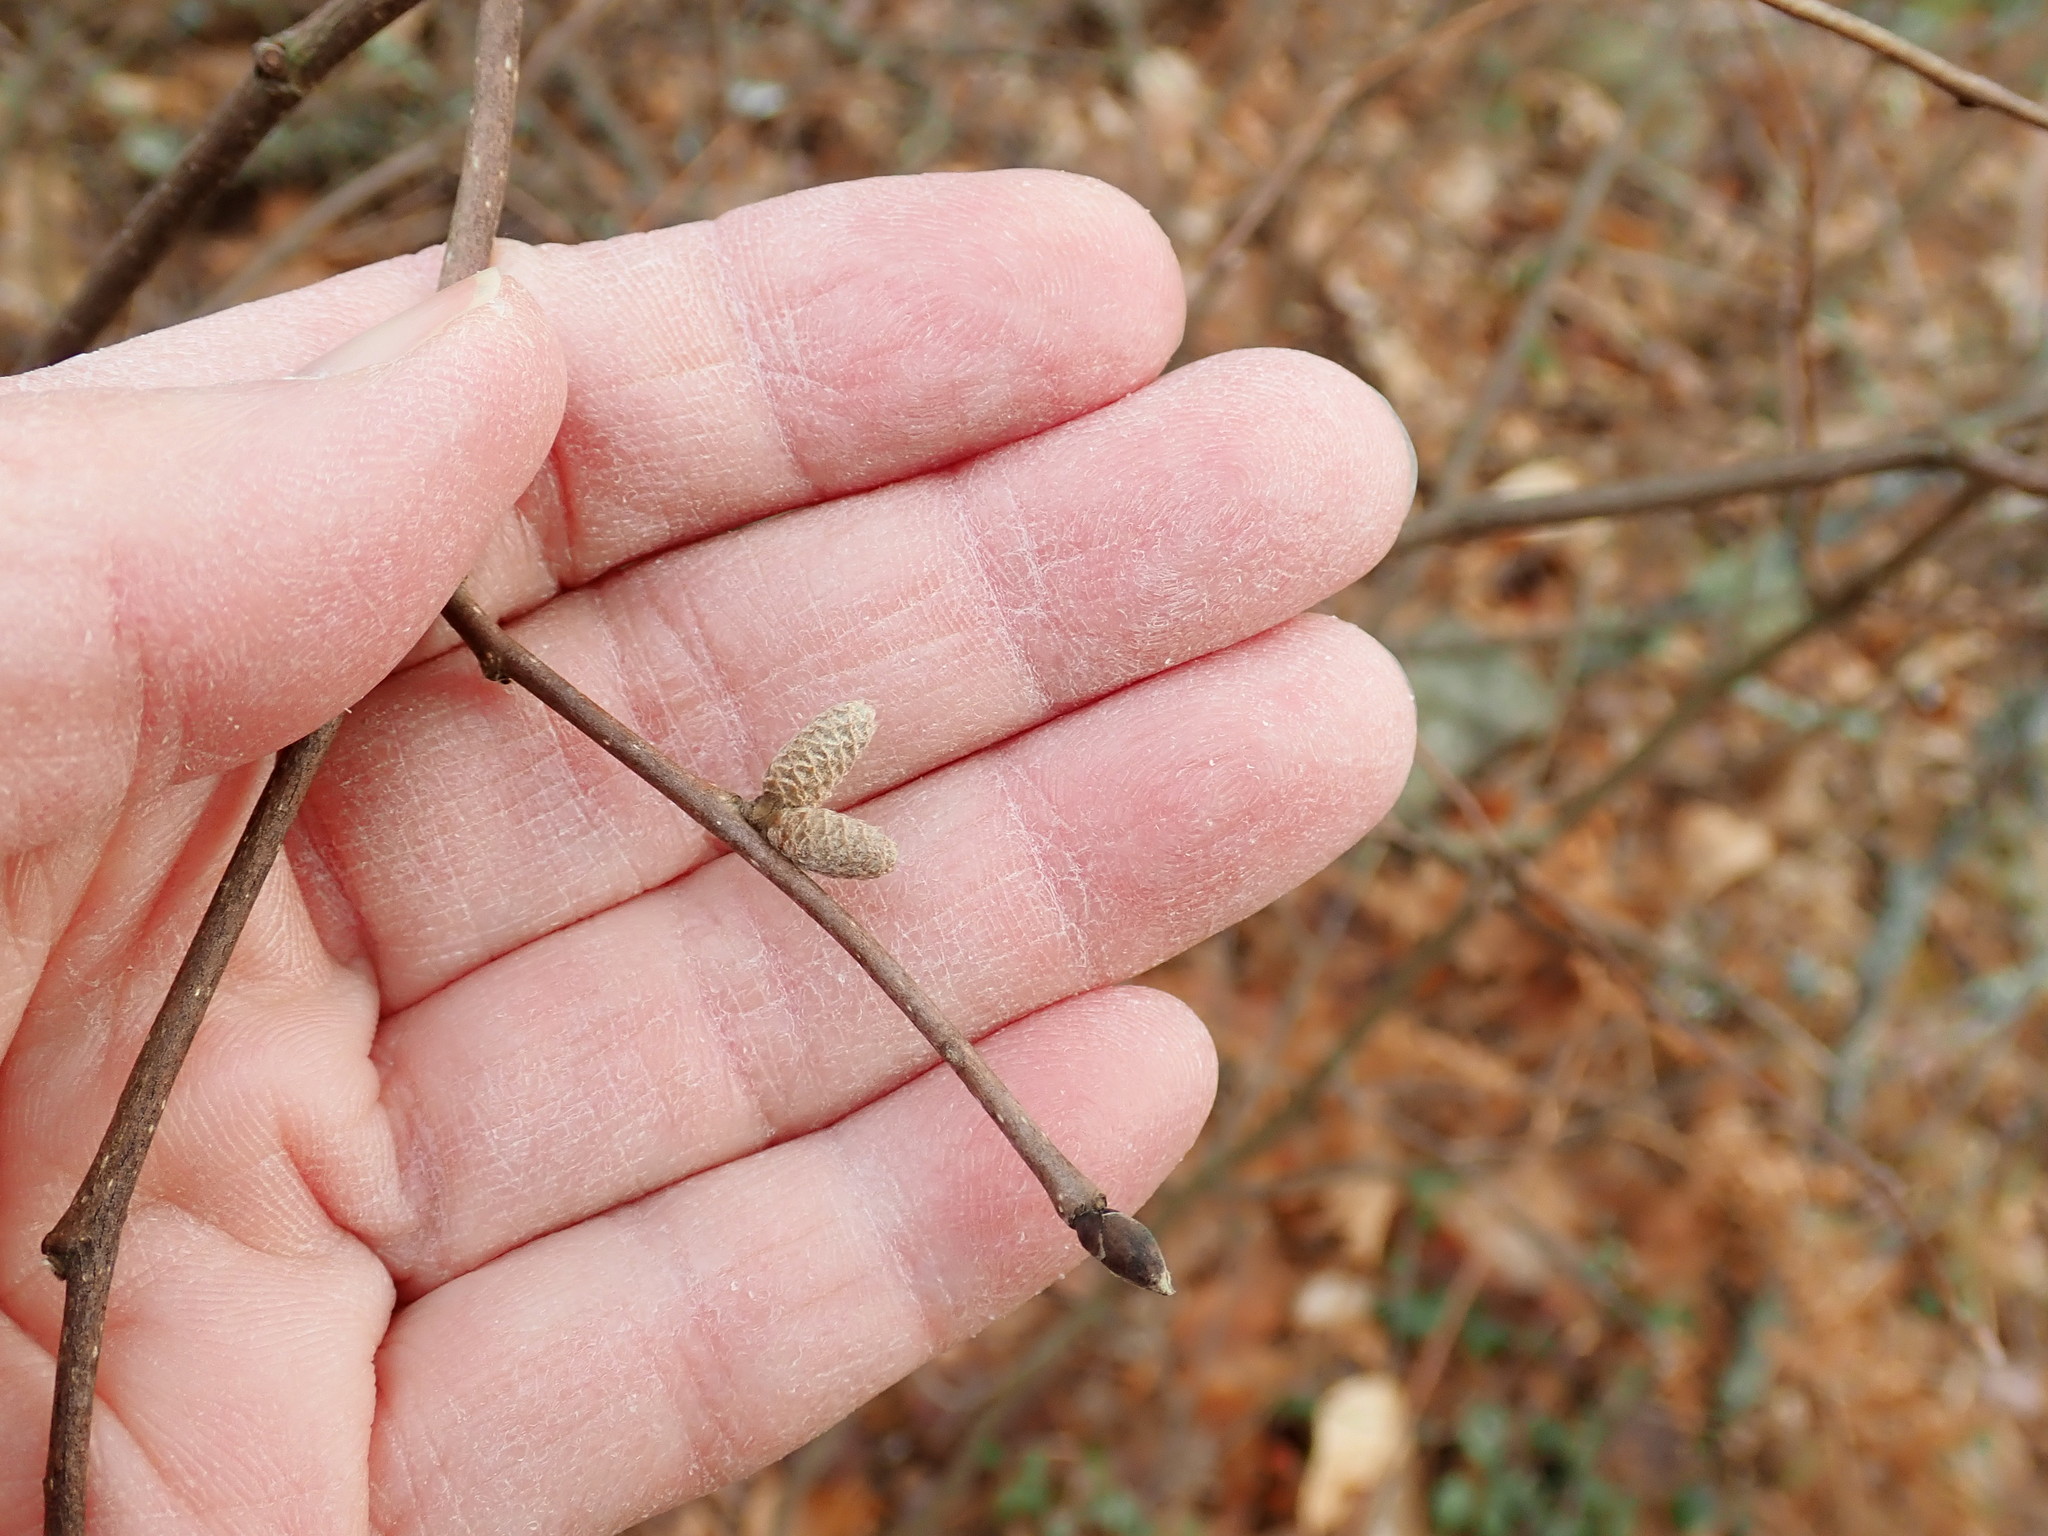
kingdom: Plantae
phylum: Tracheophyta
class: Magnoliopsida
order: Fagales
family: Betulaceae
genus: Corylus
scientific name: Corylus cornuta
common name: Beaked hazel
